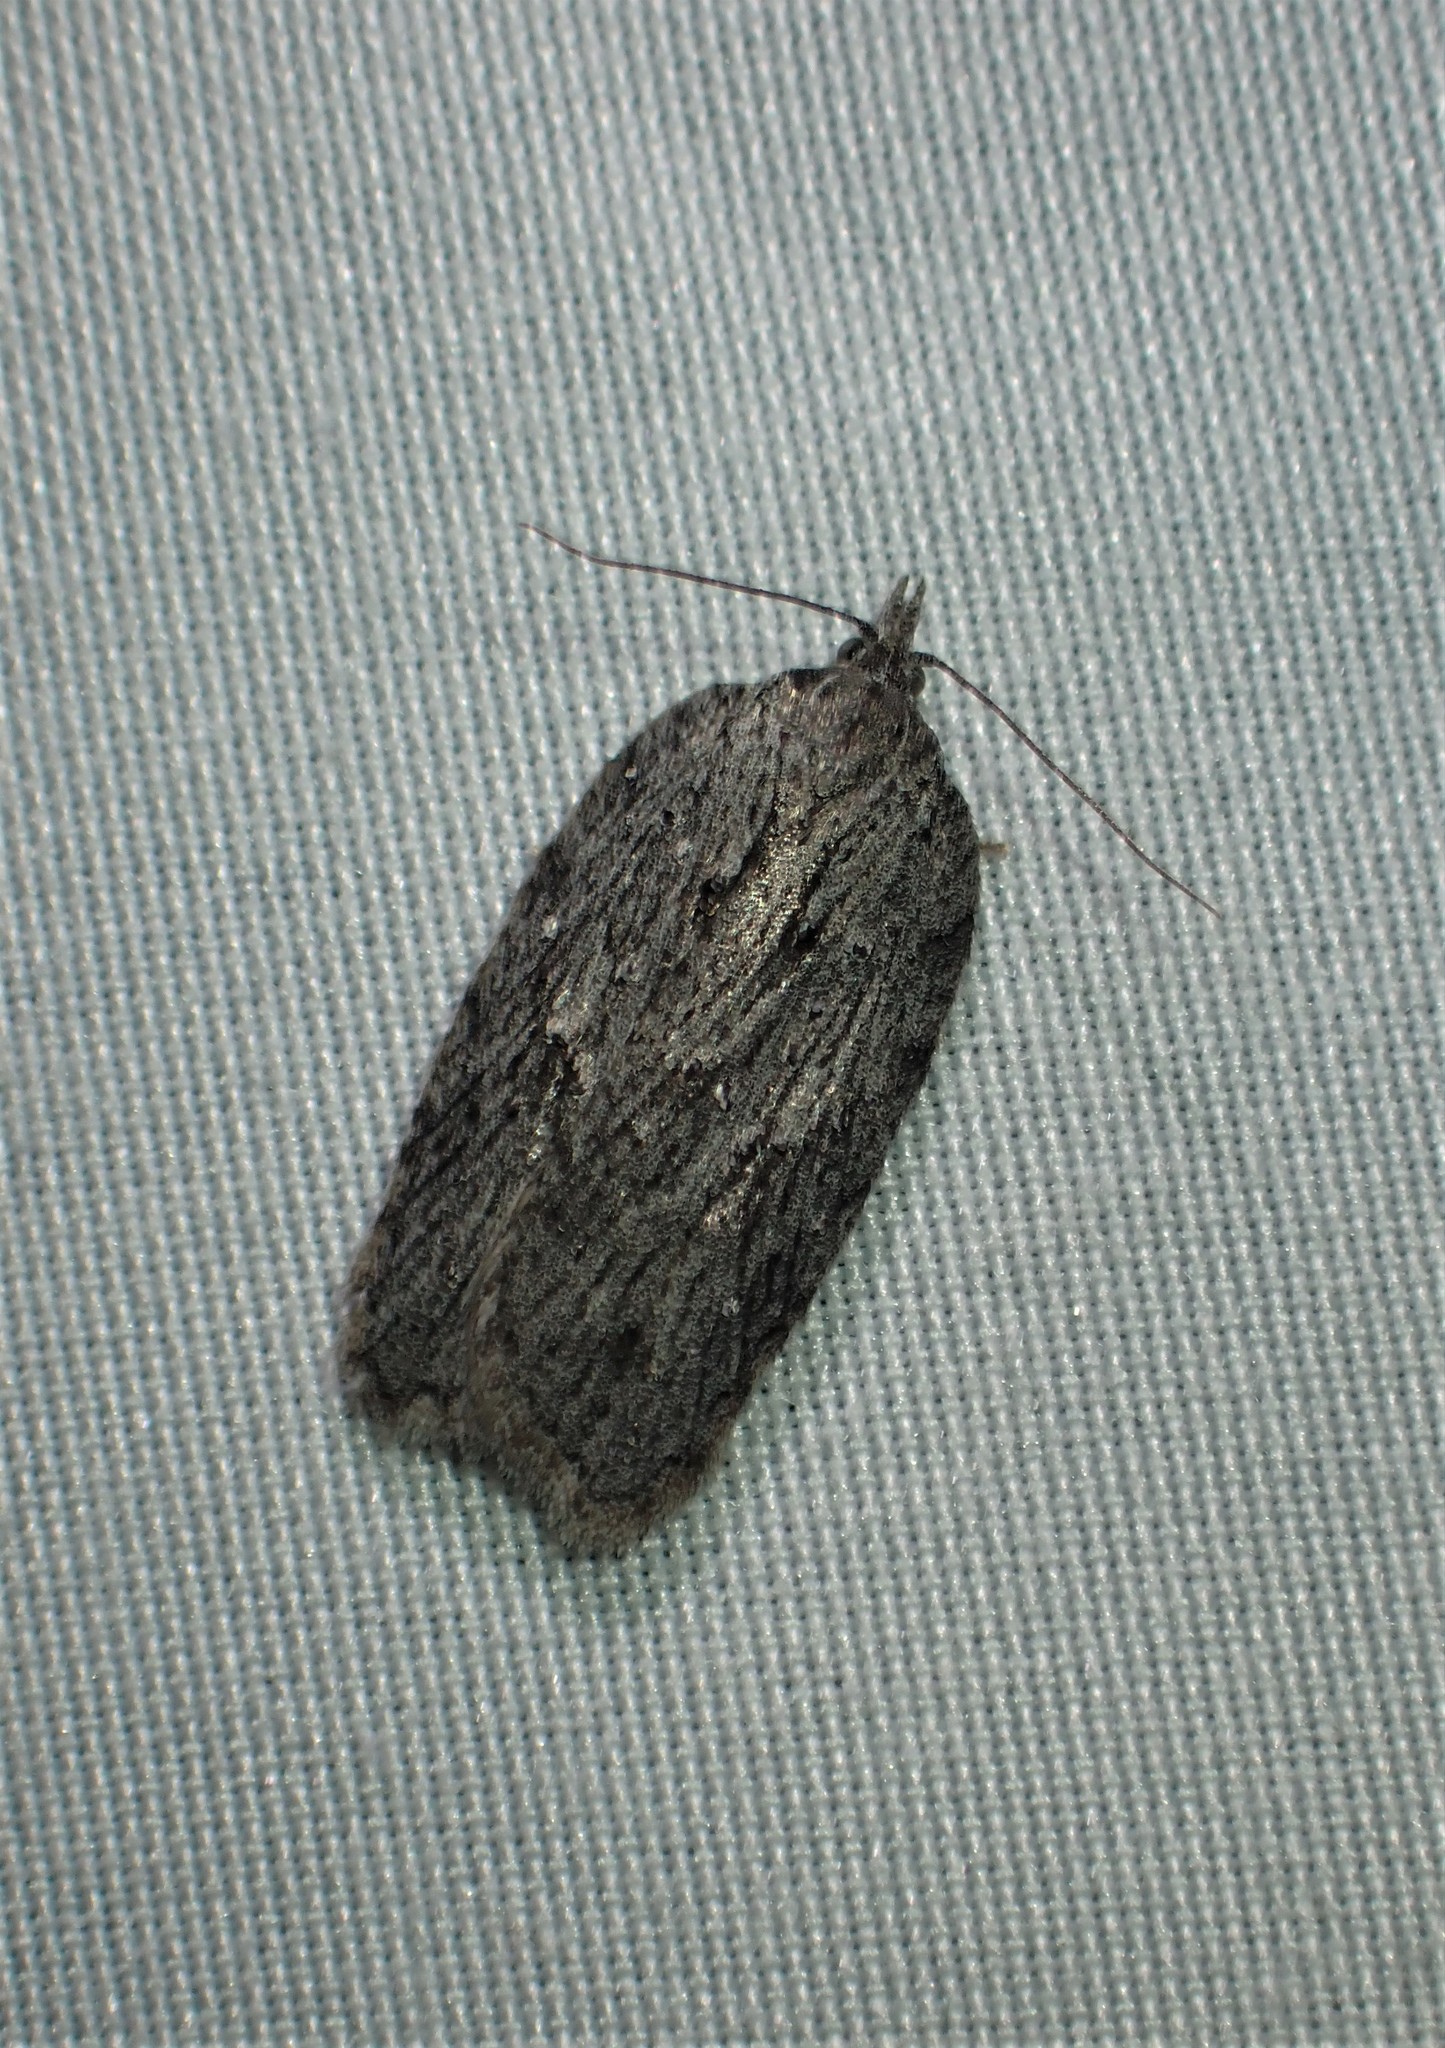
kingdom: Animalia
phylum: Arthropoda
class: Insecta
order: Lepidoptera
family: Tortricidae
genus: Acleris
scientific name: Acleris maximana
